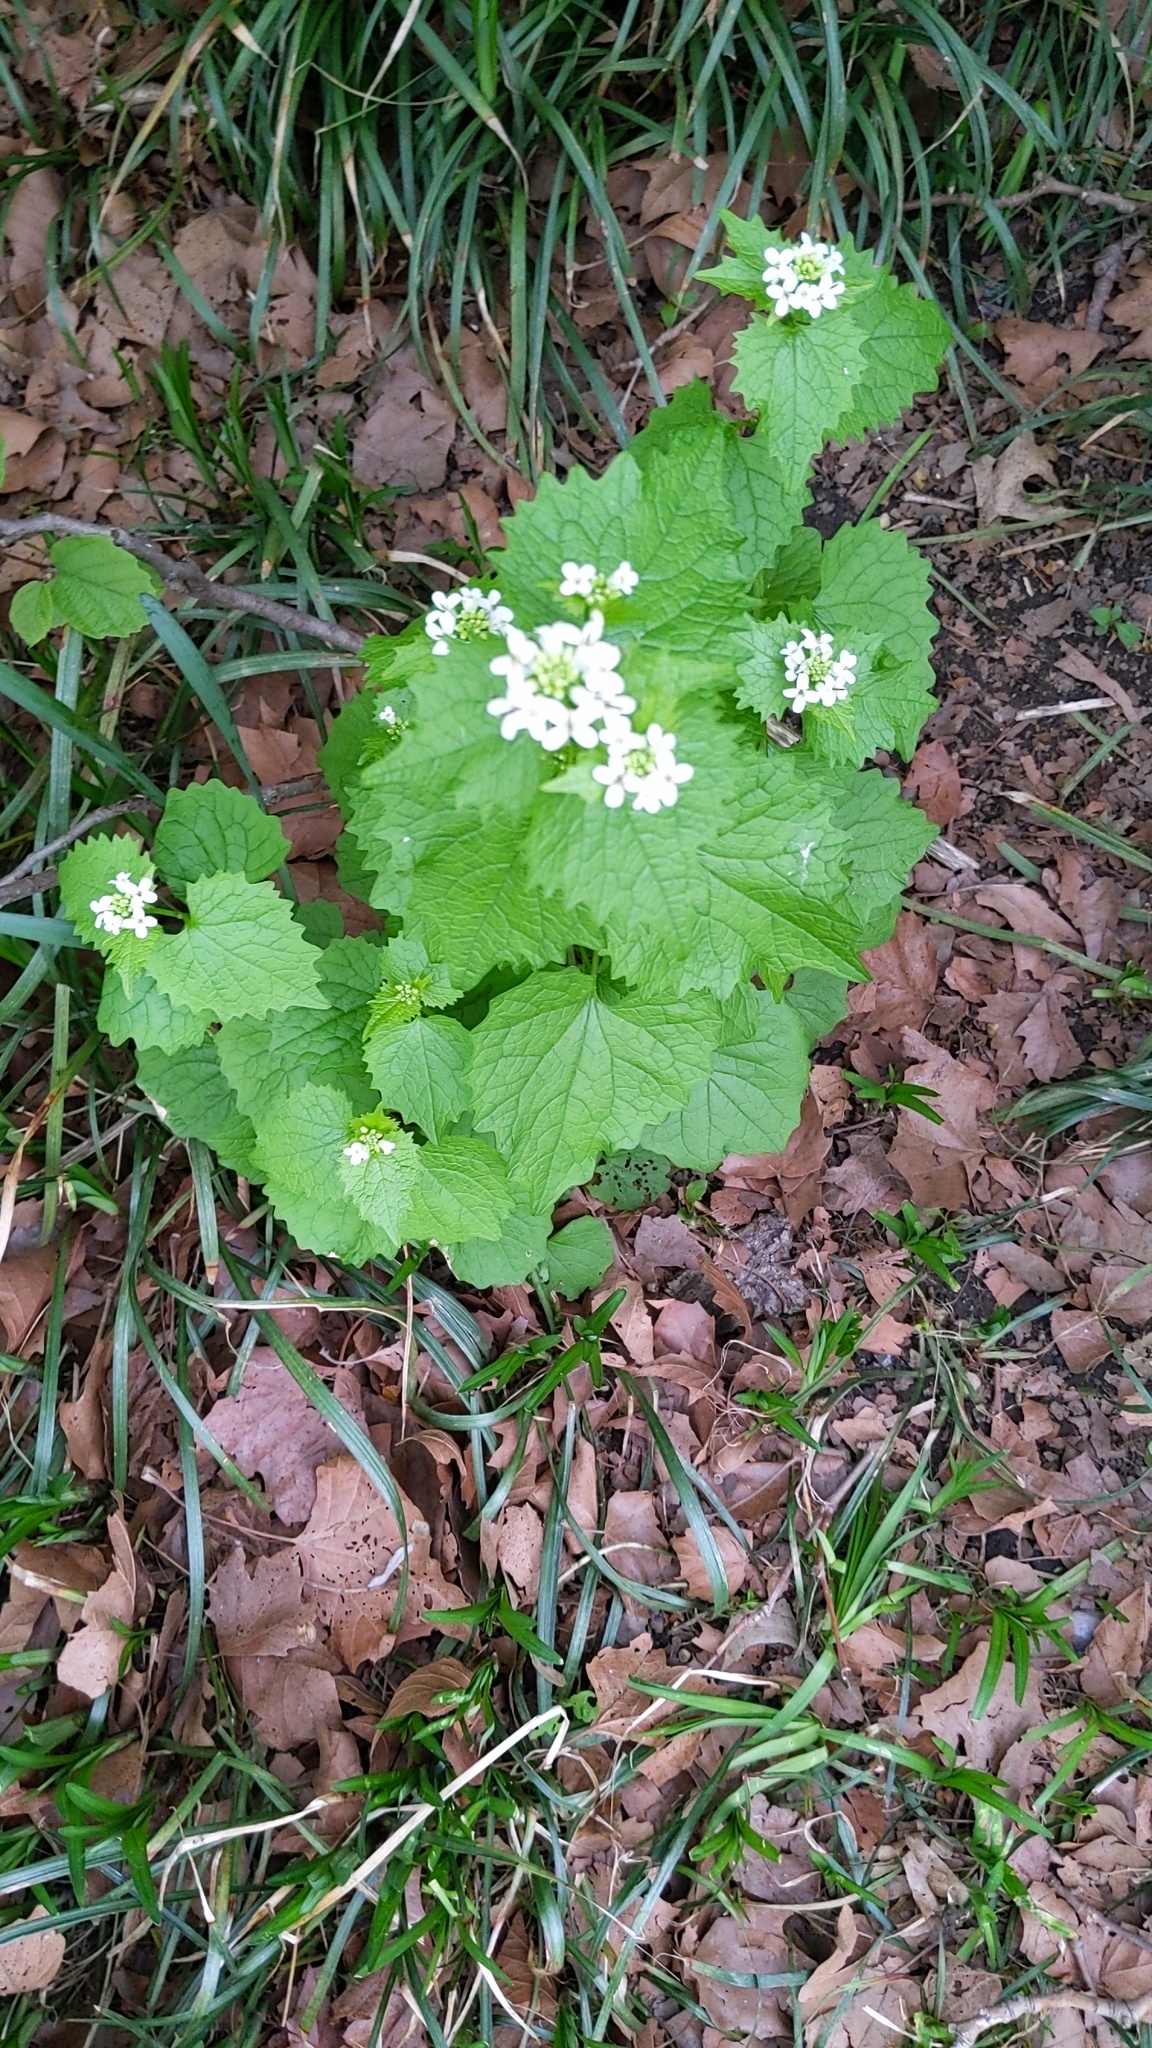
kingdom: Plantae
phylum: Tracheophyta
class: Magnoliopsida
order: Brassicales
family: Brassicaceae
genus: Alliaria
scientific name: Alliaria petiolata
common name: Garlic mustard
